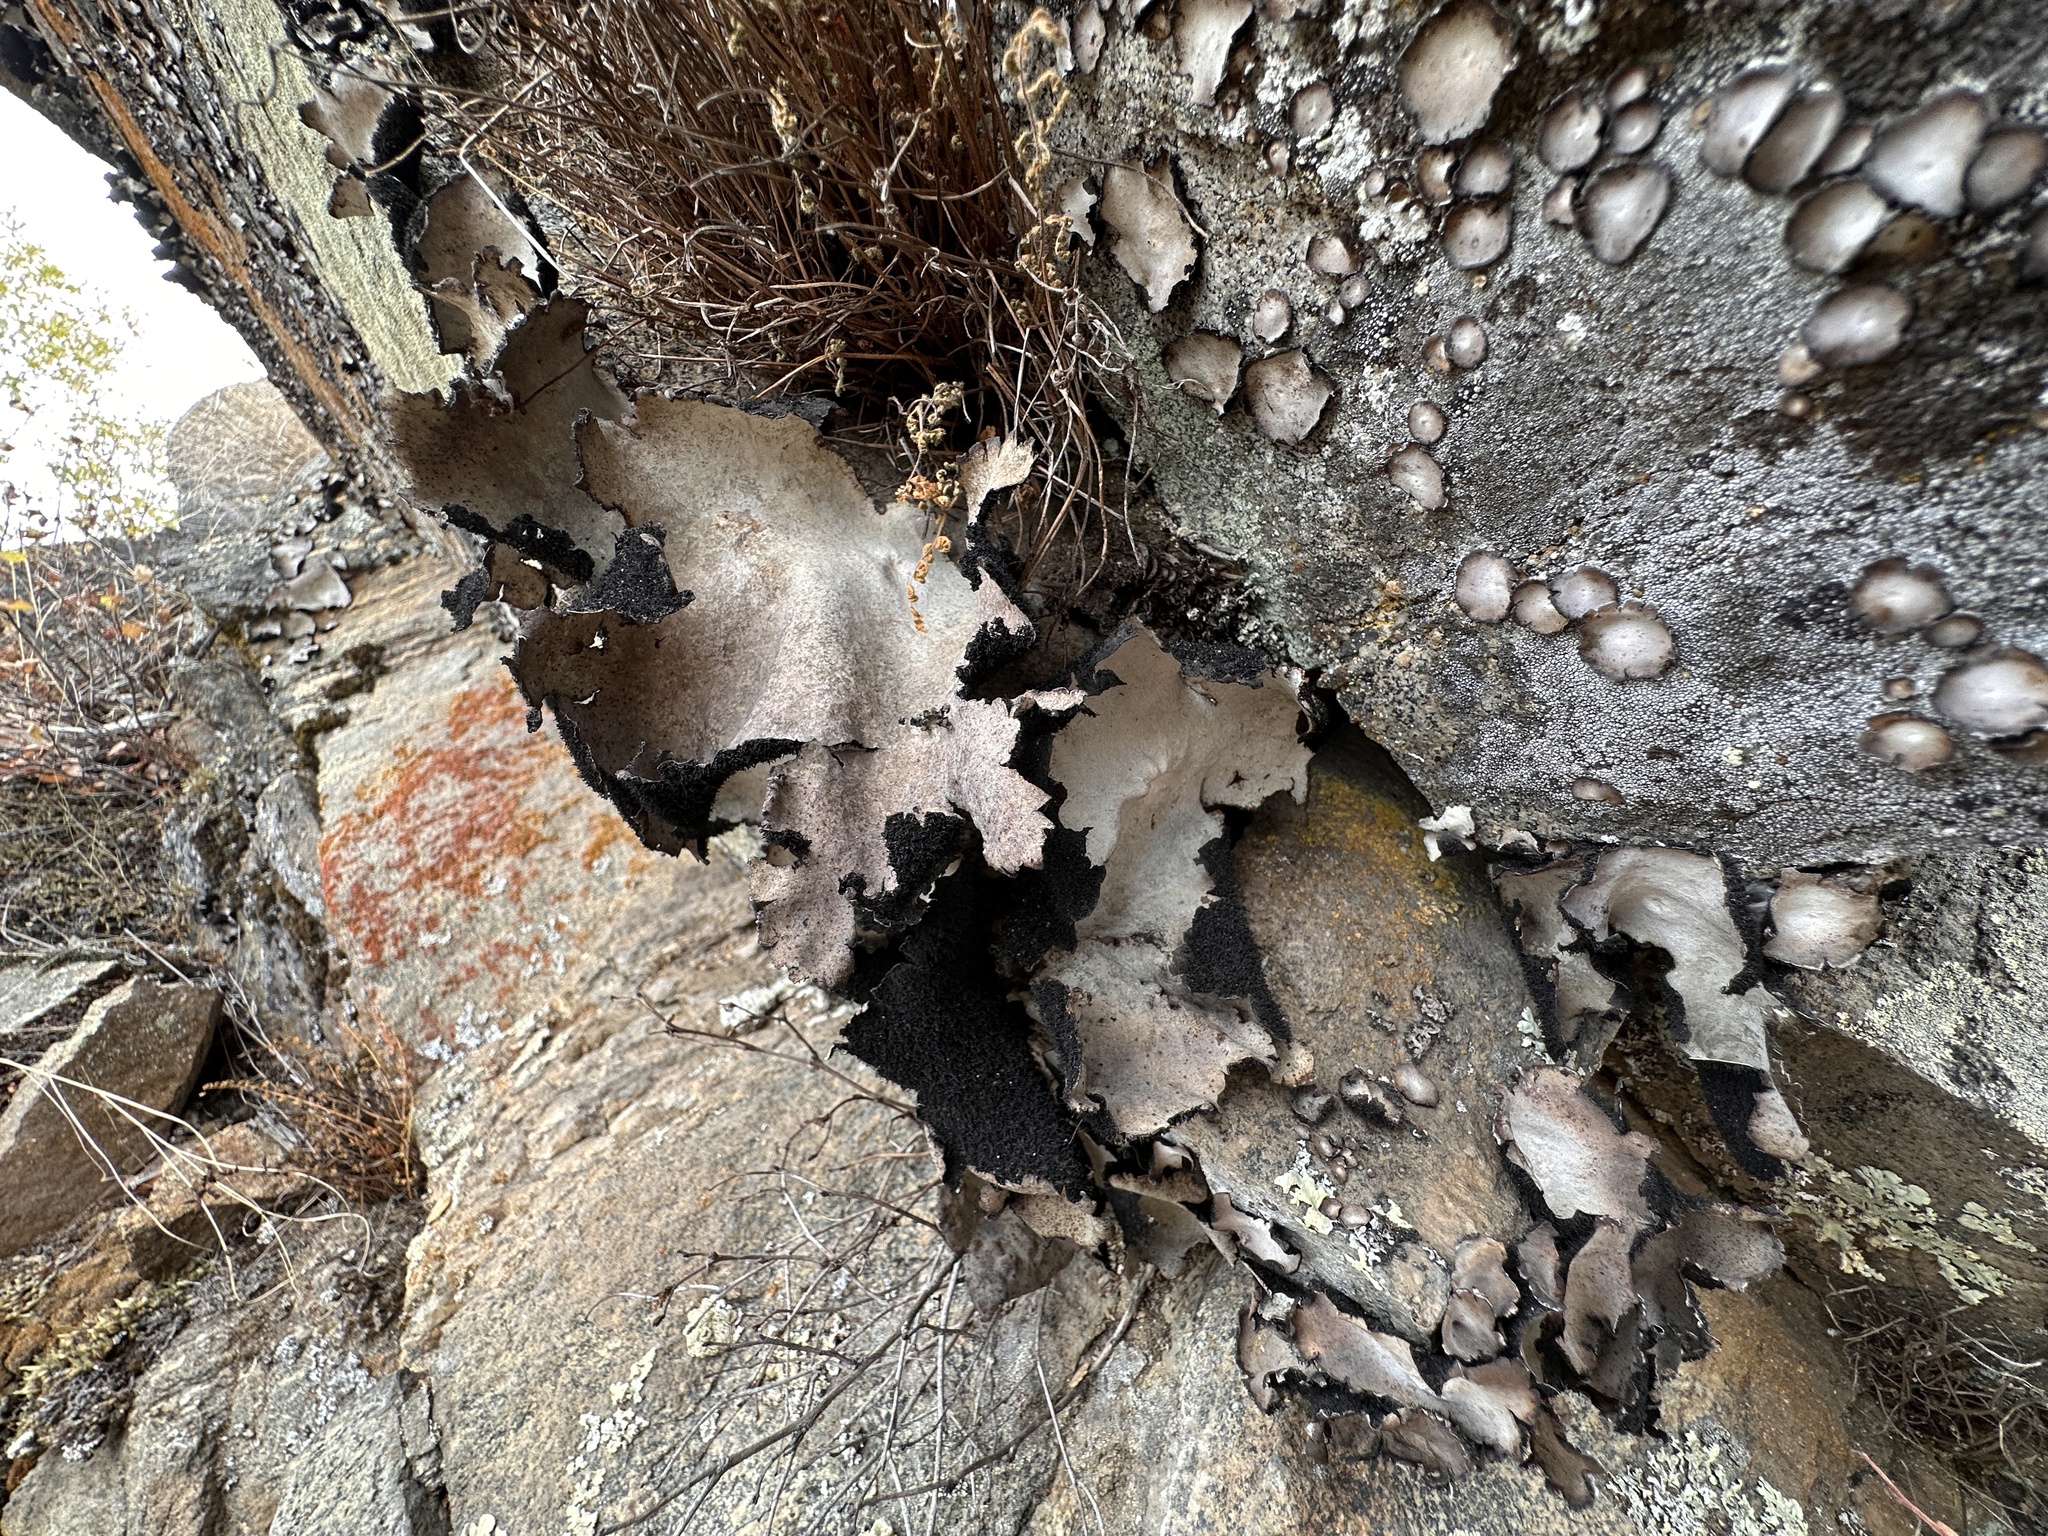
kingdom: Fungi
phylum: Ascomycota
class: Lecanoromycetes
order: Umbilicariales
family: Umbilicariaceae
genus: Umbilicaria
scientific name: Umbilicaria americana
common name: Frosted rock tripe
